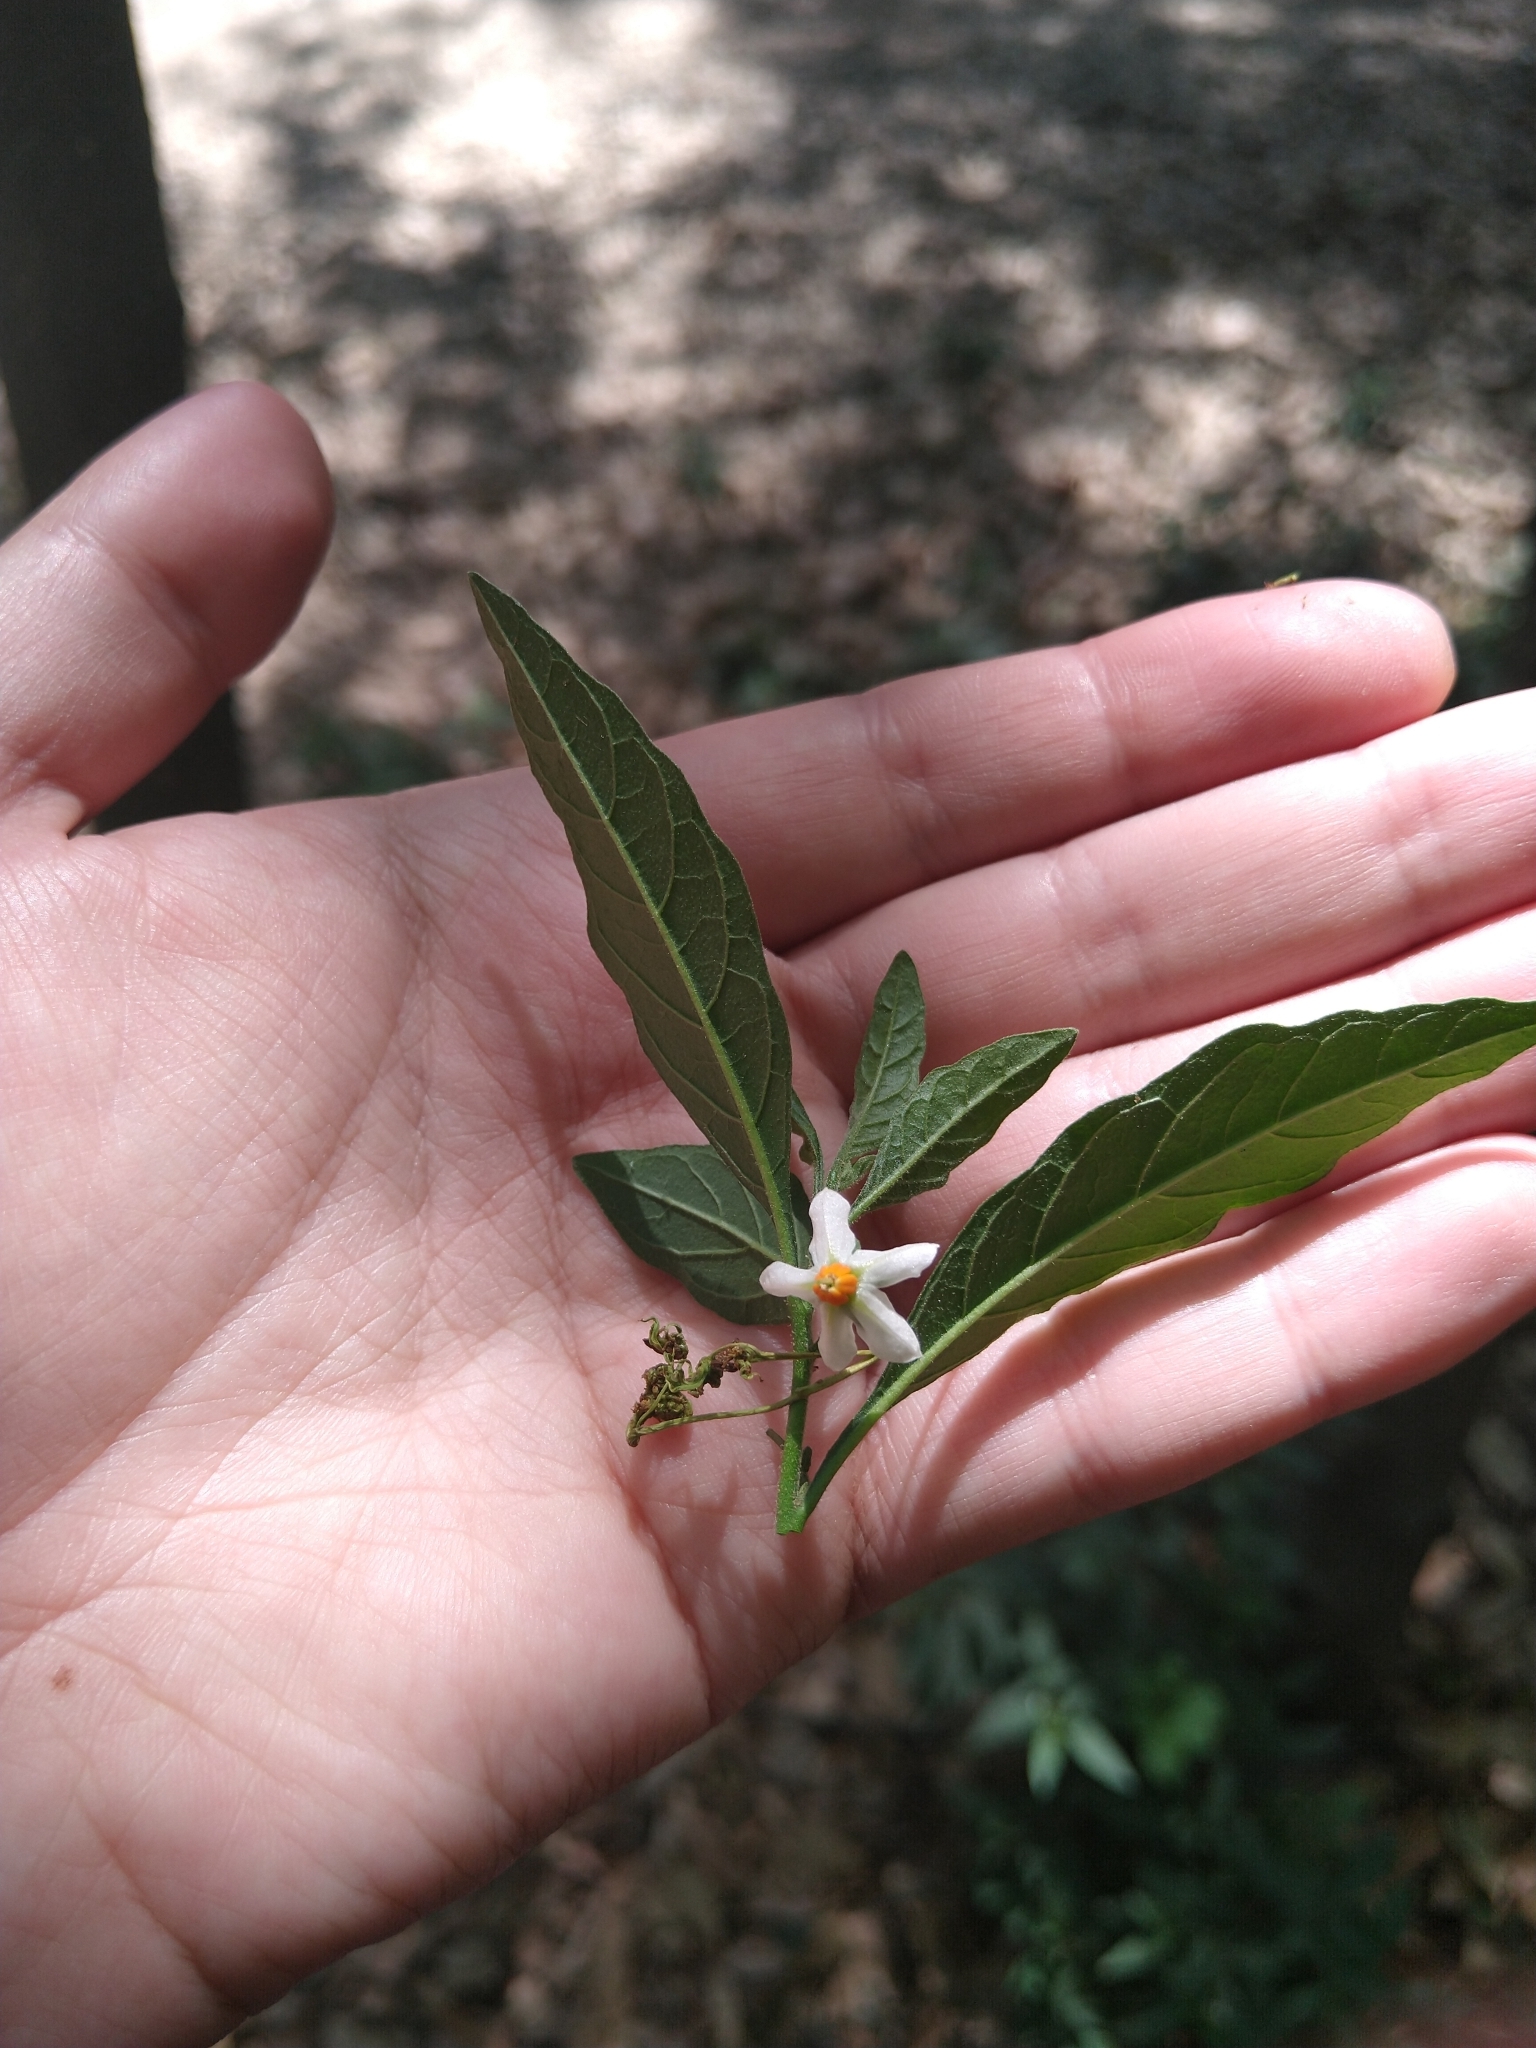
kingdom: Plantae
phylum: Tracheophyta
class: Magnoliopsida
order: Solanales
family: Solanaceae
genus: Solanum
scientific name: Solanum pseudocapsicum
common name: Jerusalem cherry
